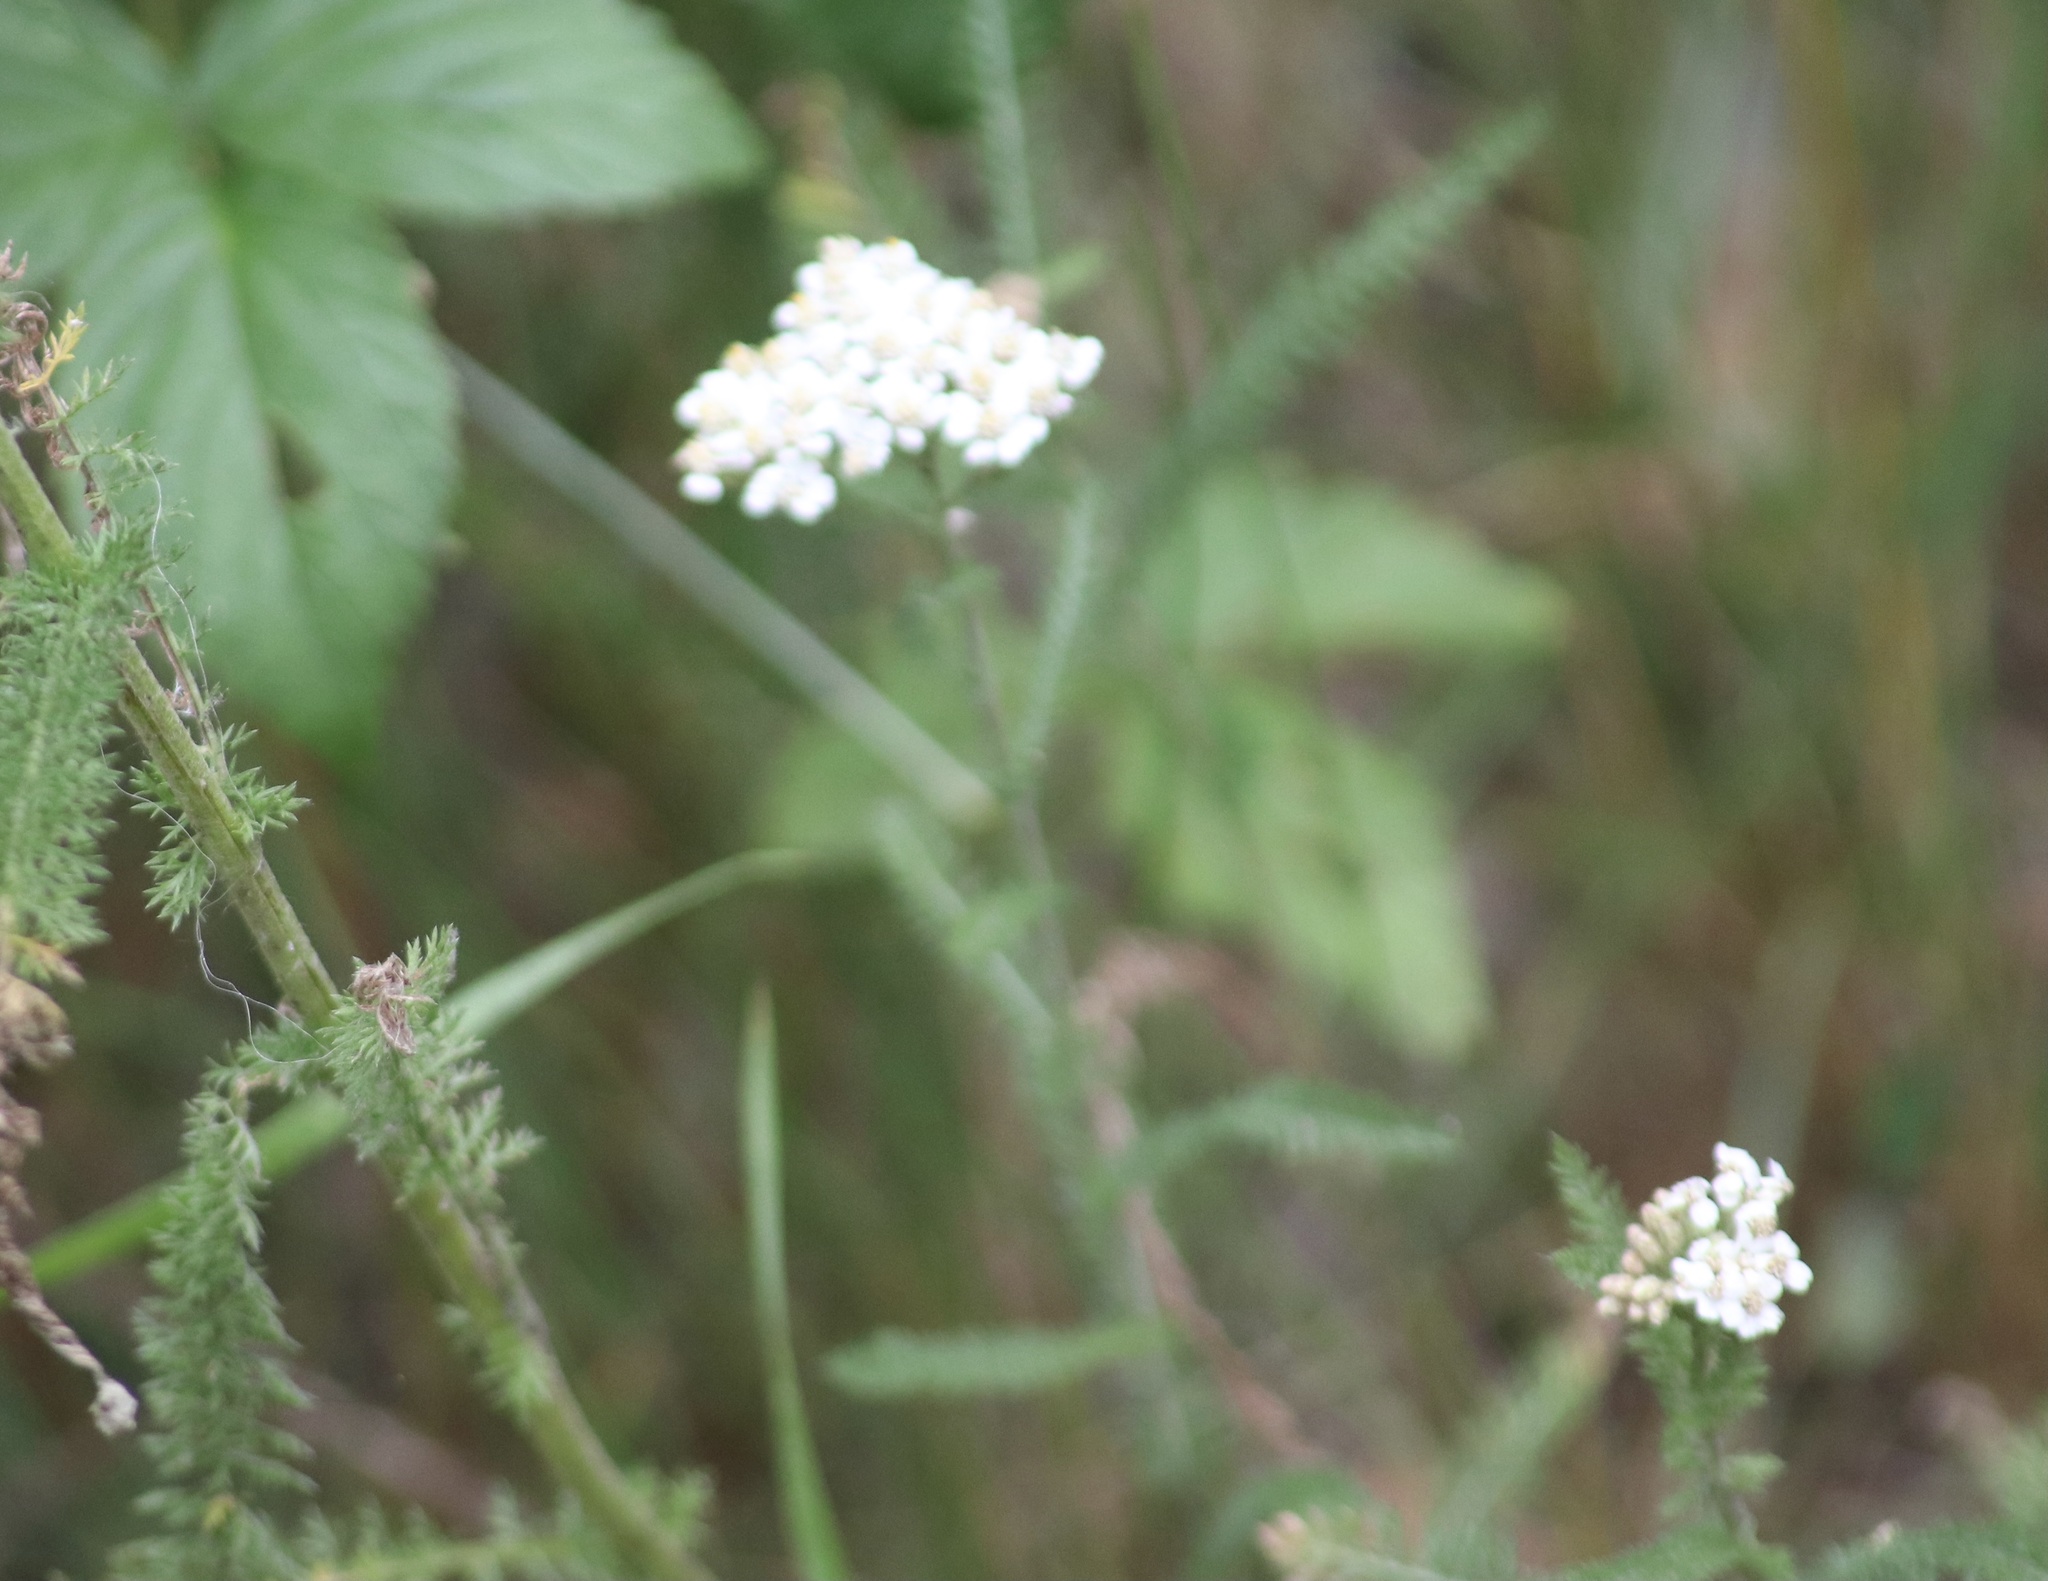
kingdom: Plantae
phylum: Tracheophyta
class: Magnoliopsida
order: Asterales
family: Asteraceae
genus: Achillea
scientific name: Achillea millefolium
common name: Yarrow
